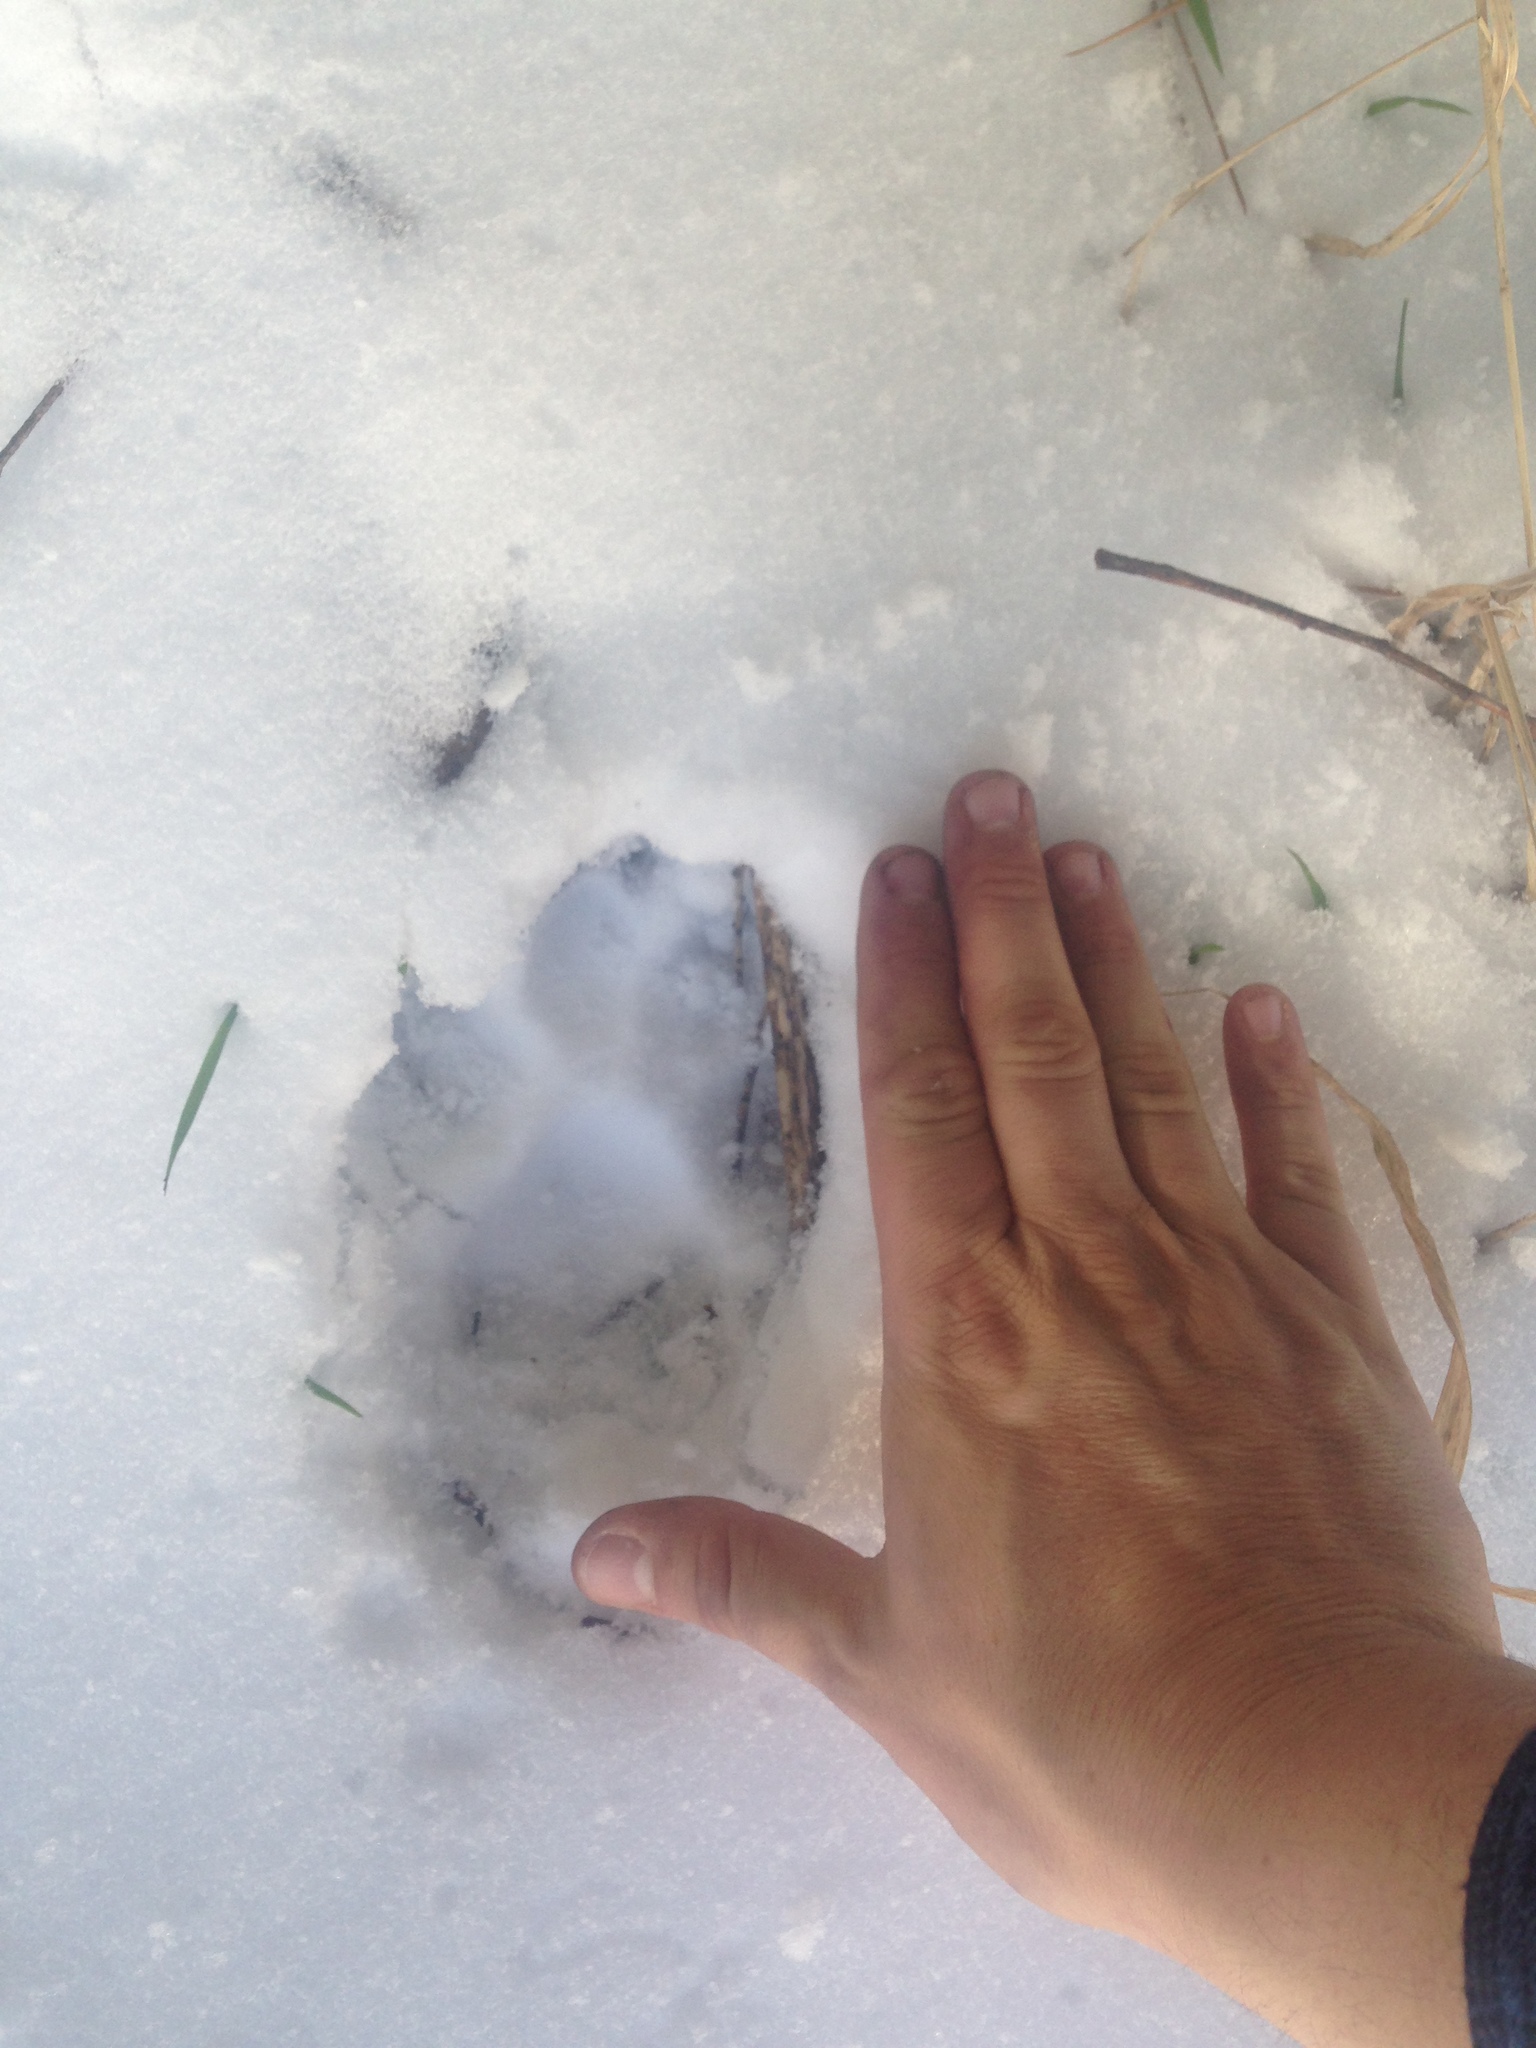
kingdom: Animalia
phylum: Chordata
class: Mammalia
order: Carnivora
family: Canidae
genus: Canis
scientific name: Canis lupus
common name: Gray wolf
